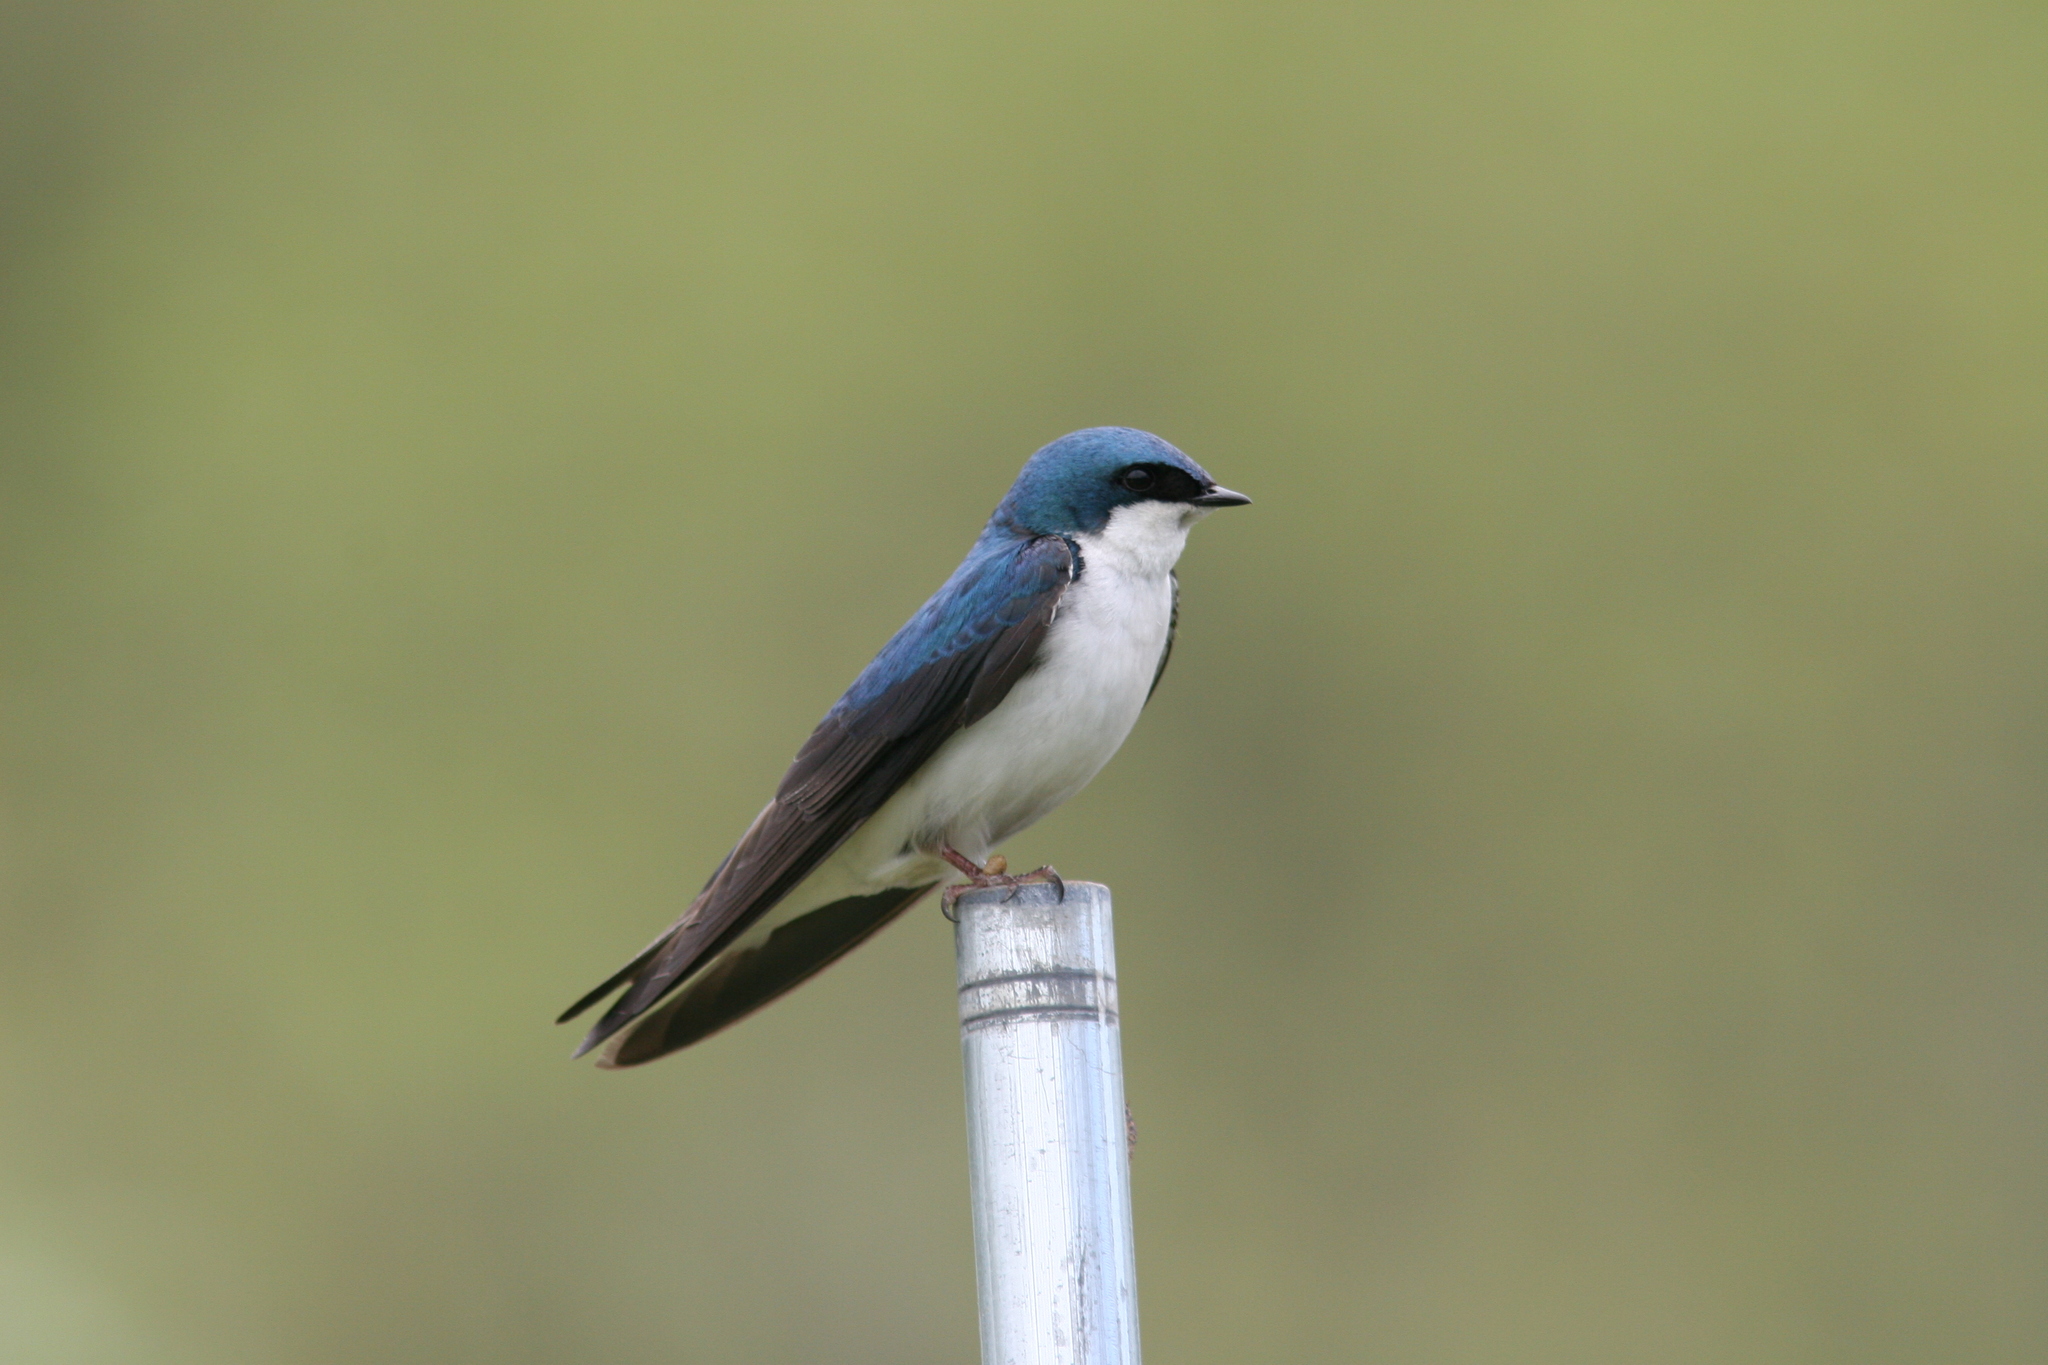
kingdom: Animalia
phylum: Chordata
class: Aves
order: Passeriformes
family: Hirundinidae
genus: Tachycineta
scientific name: Tachycineta bicolor
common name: Tree swallow
